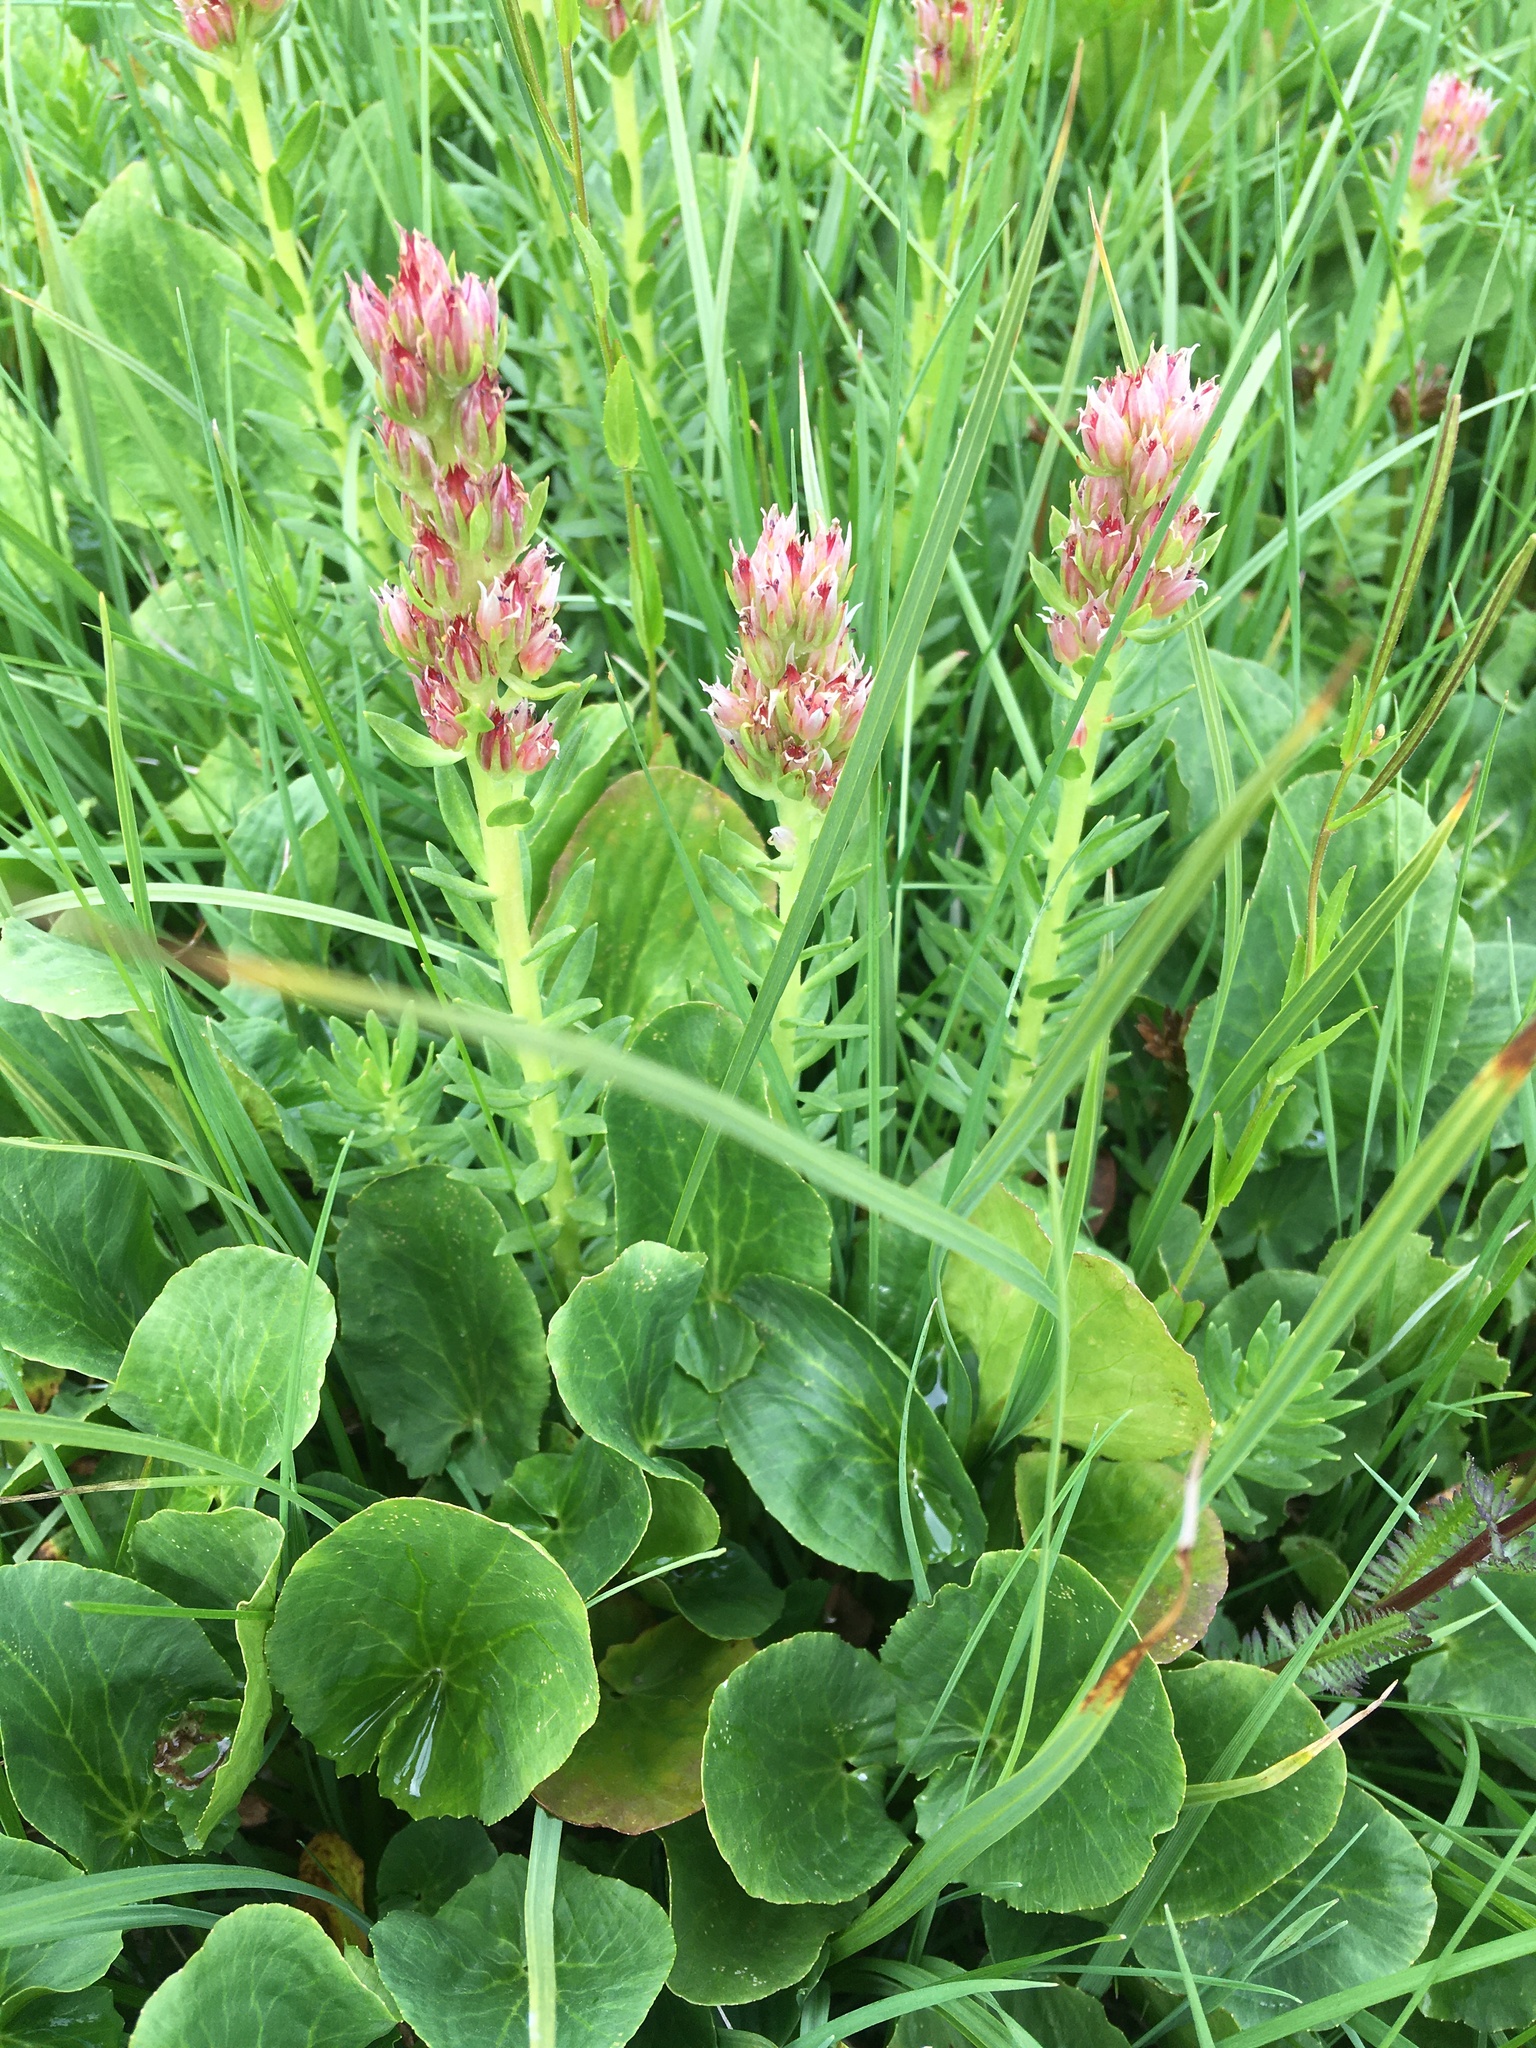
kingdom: Plantae
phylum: Tracheophyta
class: Magnoliopsida
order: Saxifragales
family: Crassulaceae
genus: Rhodiola
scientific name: Rhodiola rhodantha
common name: Red orpine
